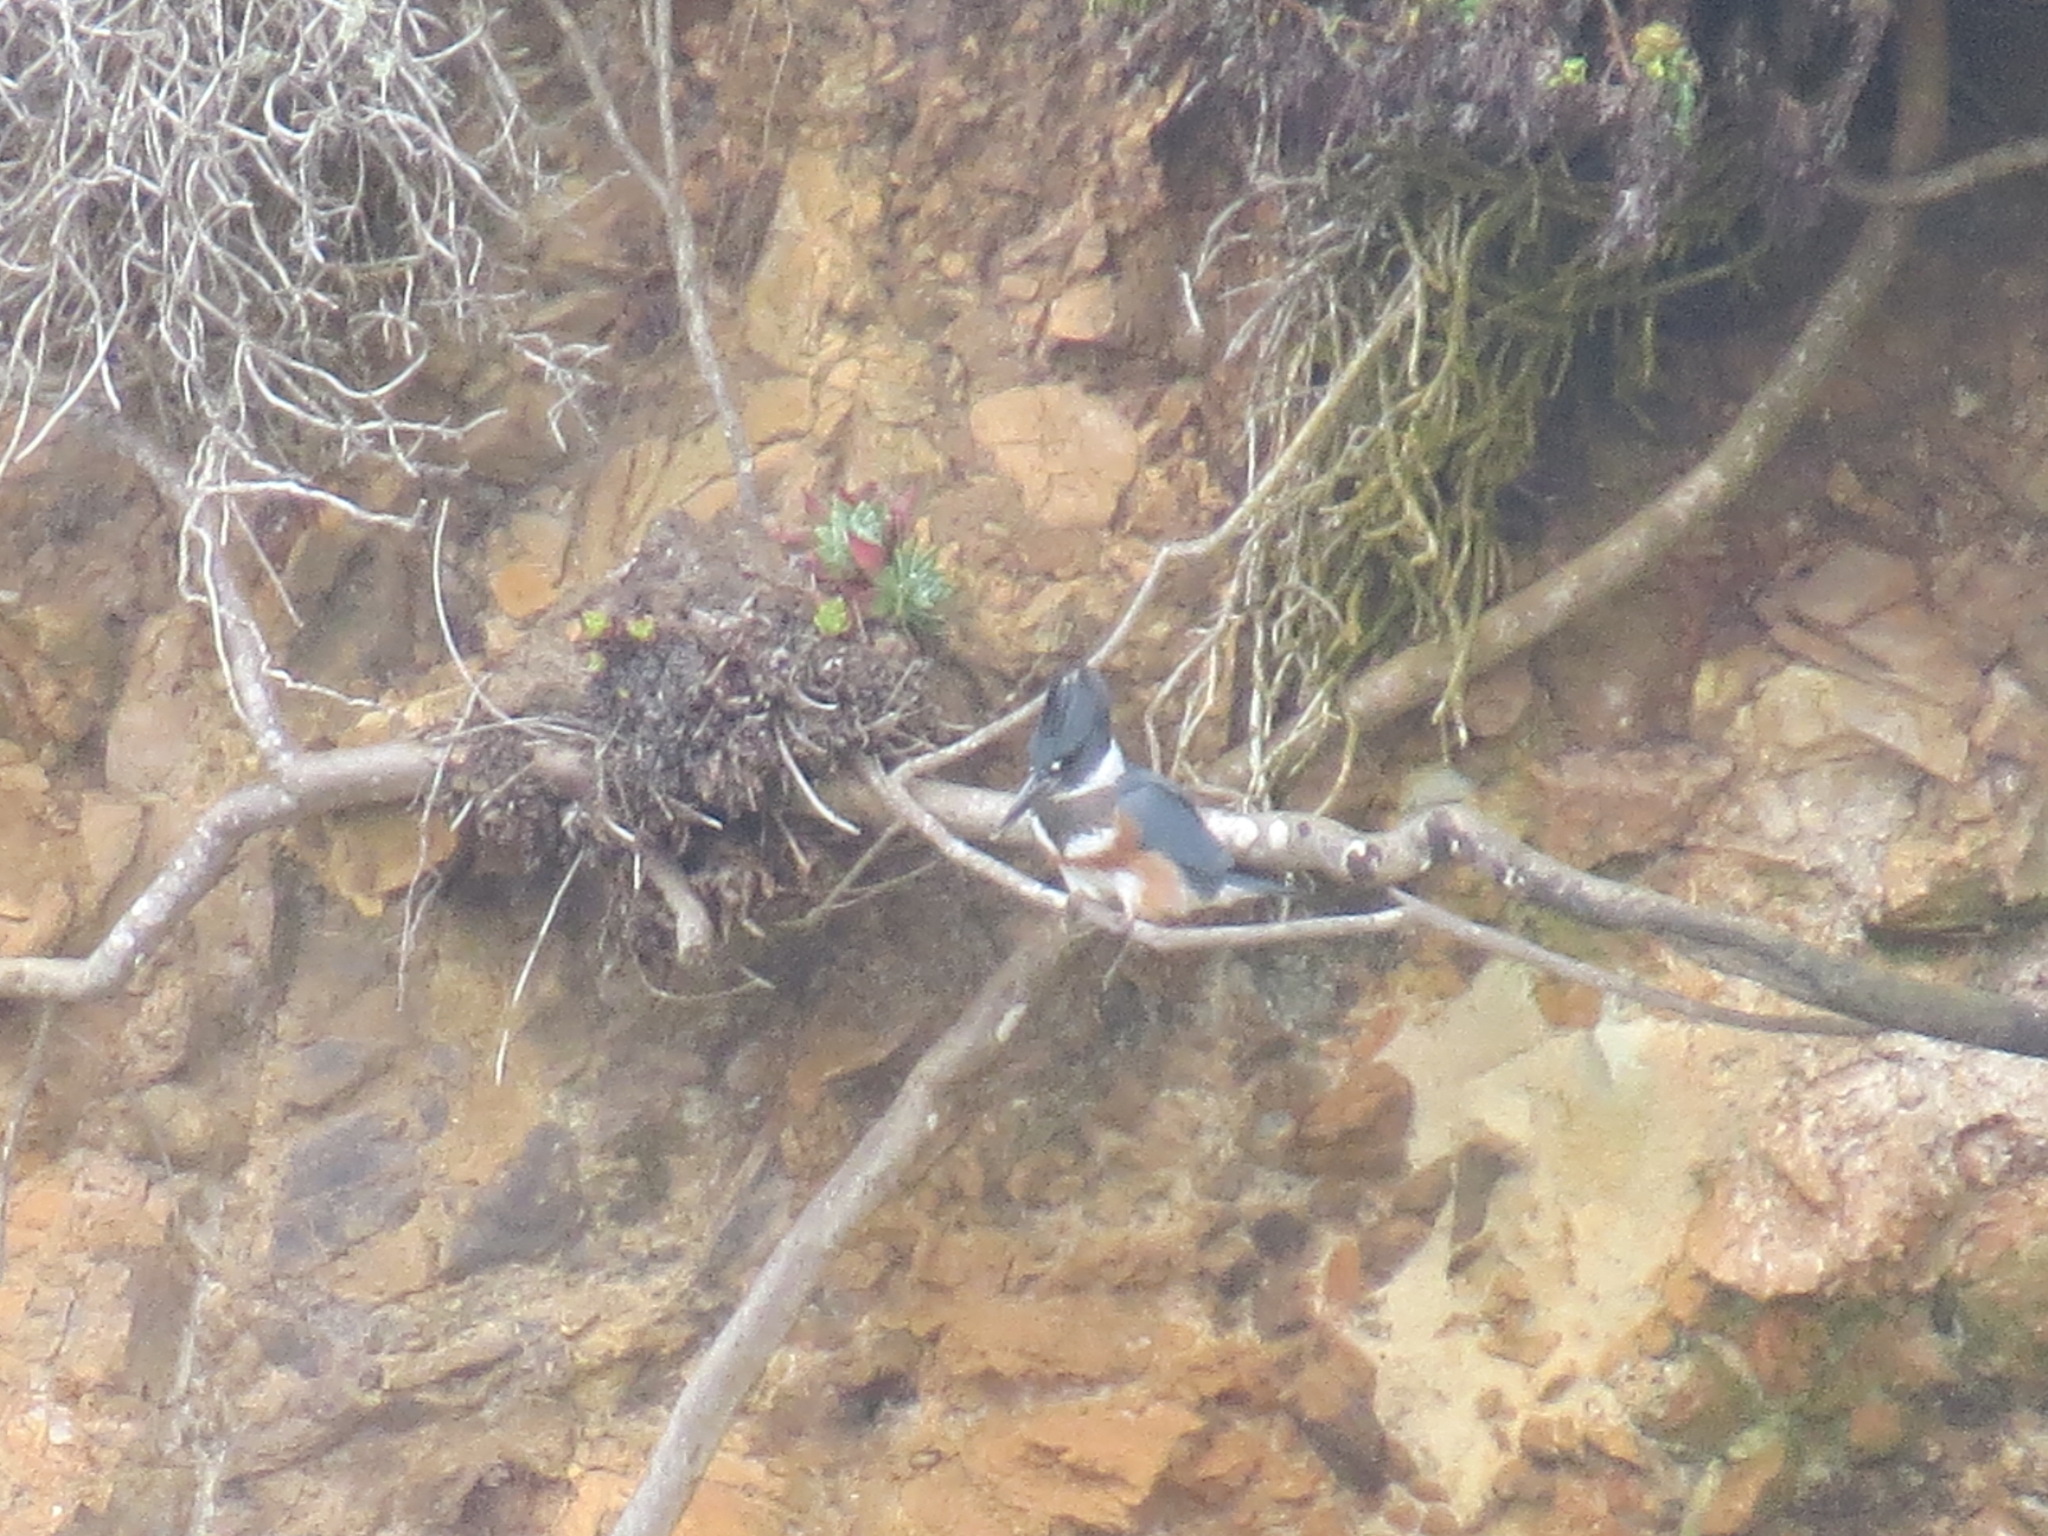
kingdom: Animalia
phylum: Chordata
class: Aves
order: Coraciiformes
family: Alcedinidae
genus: Megaceryle
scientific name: Megaceryle alcyon
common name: Belted kingfisher
